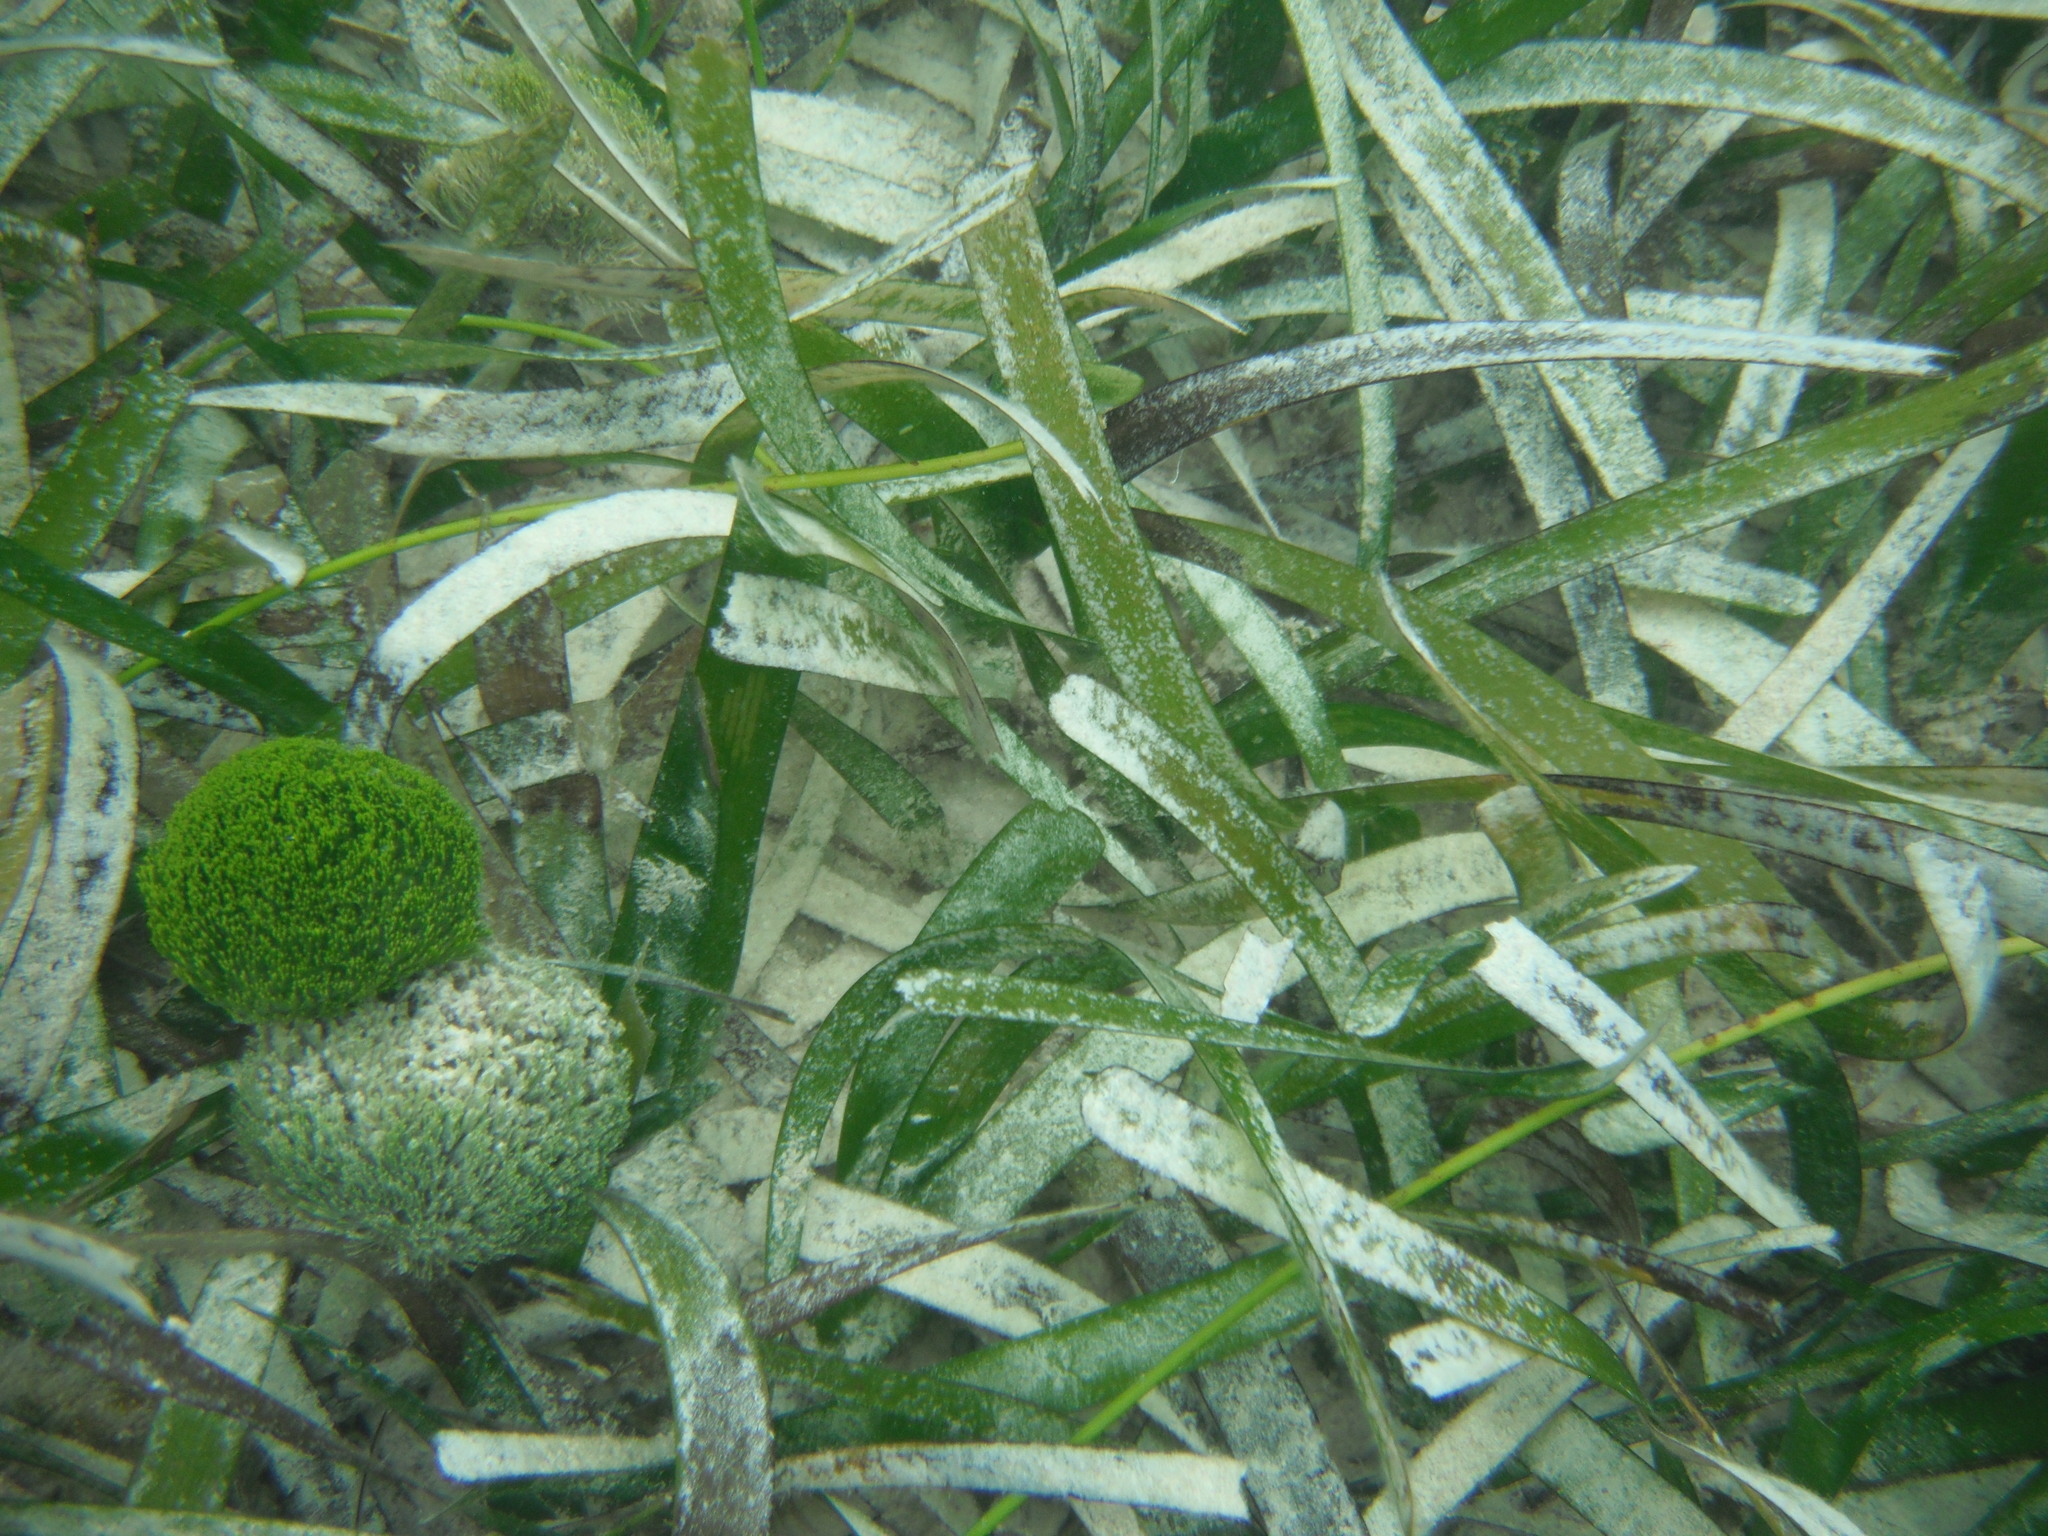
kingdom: Plantae
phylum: Tracheophyta
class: Liliopsida
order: Alismatales
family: Hydrocharitaceae
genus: Thalassia
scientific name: Thalassia testudinum
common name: Species code: tt
